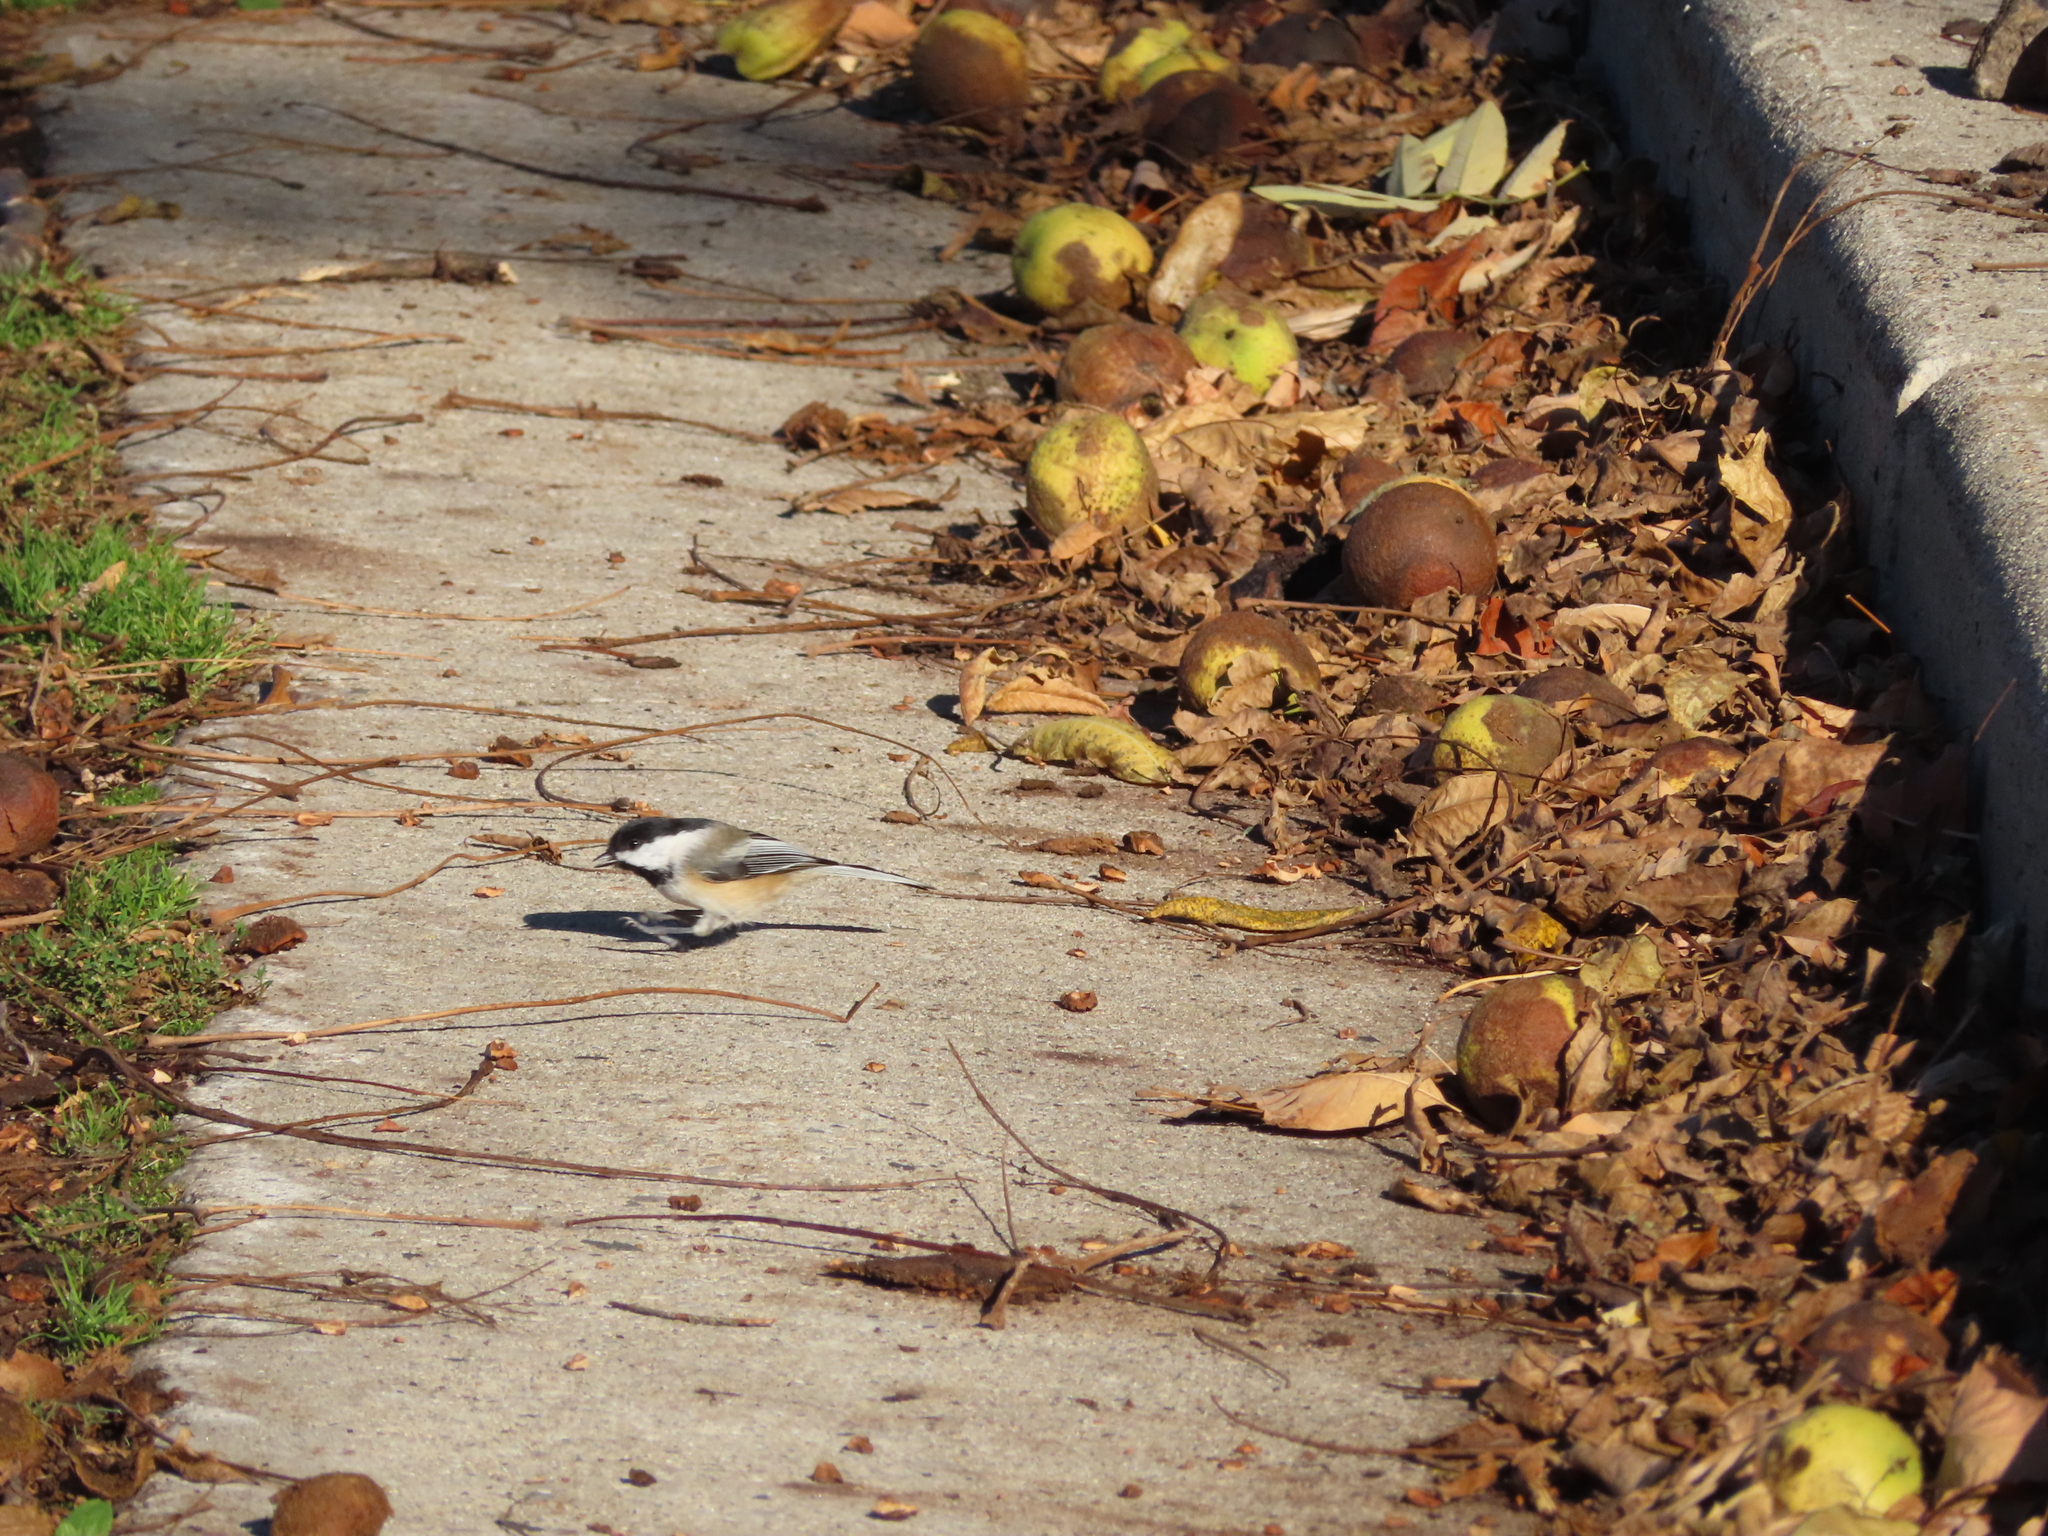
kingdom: Animalia
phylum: Chordata
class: Aves
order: Passeriformes
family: Paridae
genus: Poecile
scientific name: Poecile atricapillus
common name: Black-capped chickadee
